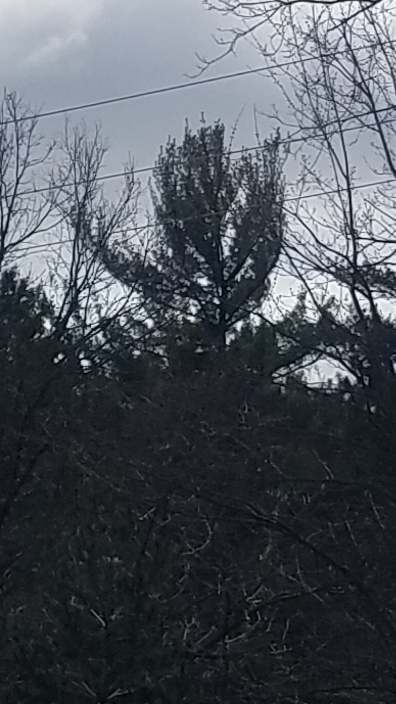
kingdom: Plantae
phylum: Tracheophyta
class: Pinopsida
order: Pinales
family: Pinaceae
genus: Pinus
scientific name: Pinus strobus
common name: Weymouth pine
